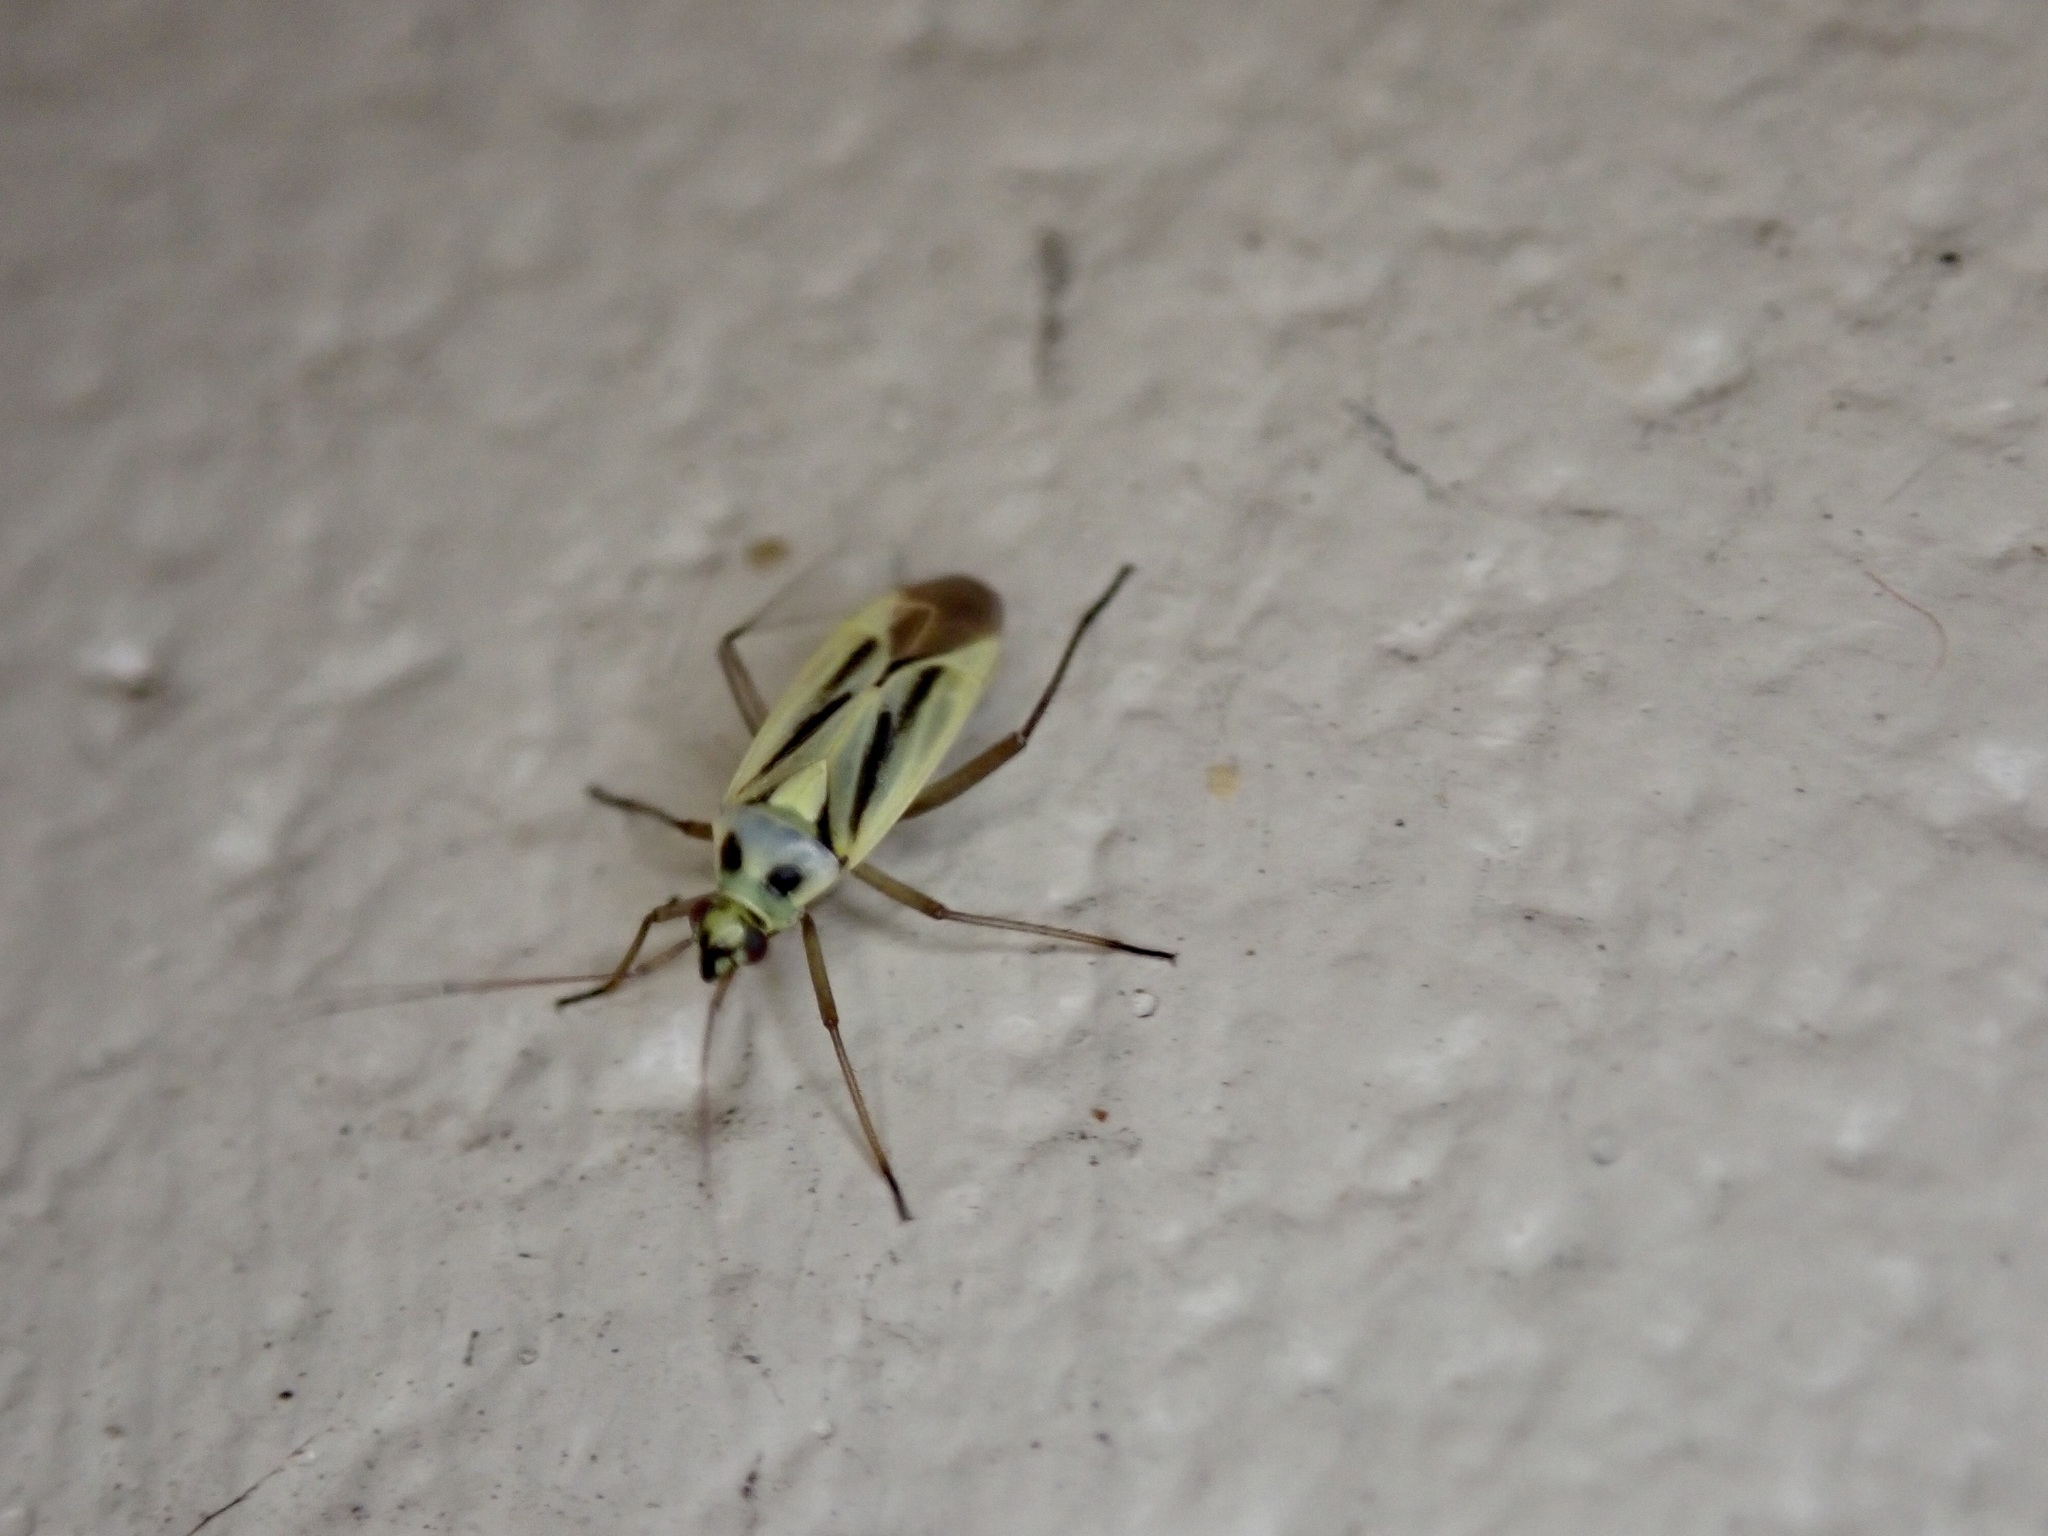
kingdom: Animalia
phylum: Arthropoda
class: Insecta
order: Hemiptera
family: Miridae
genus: Stenotus
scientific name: Stenotus binotatus
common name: Plant bug
